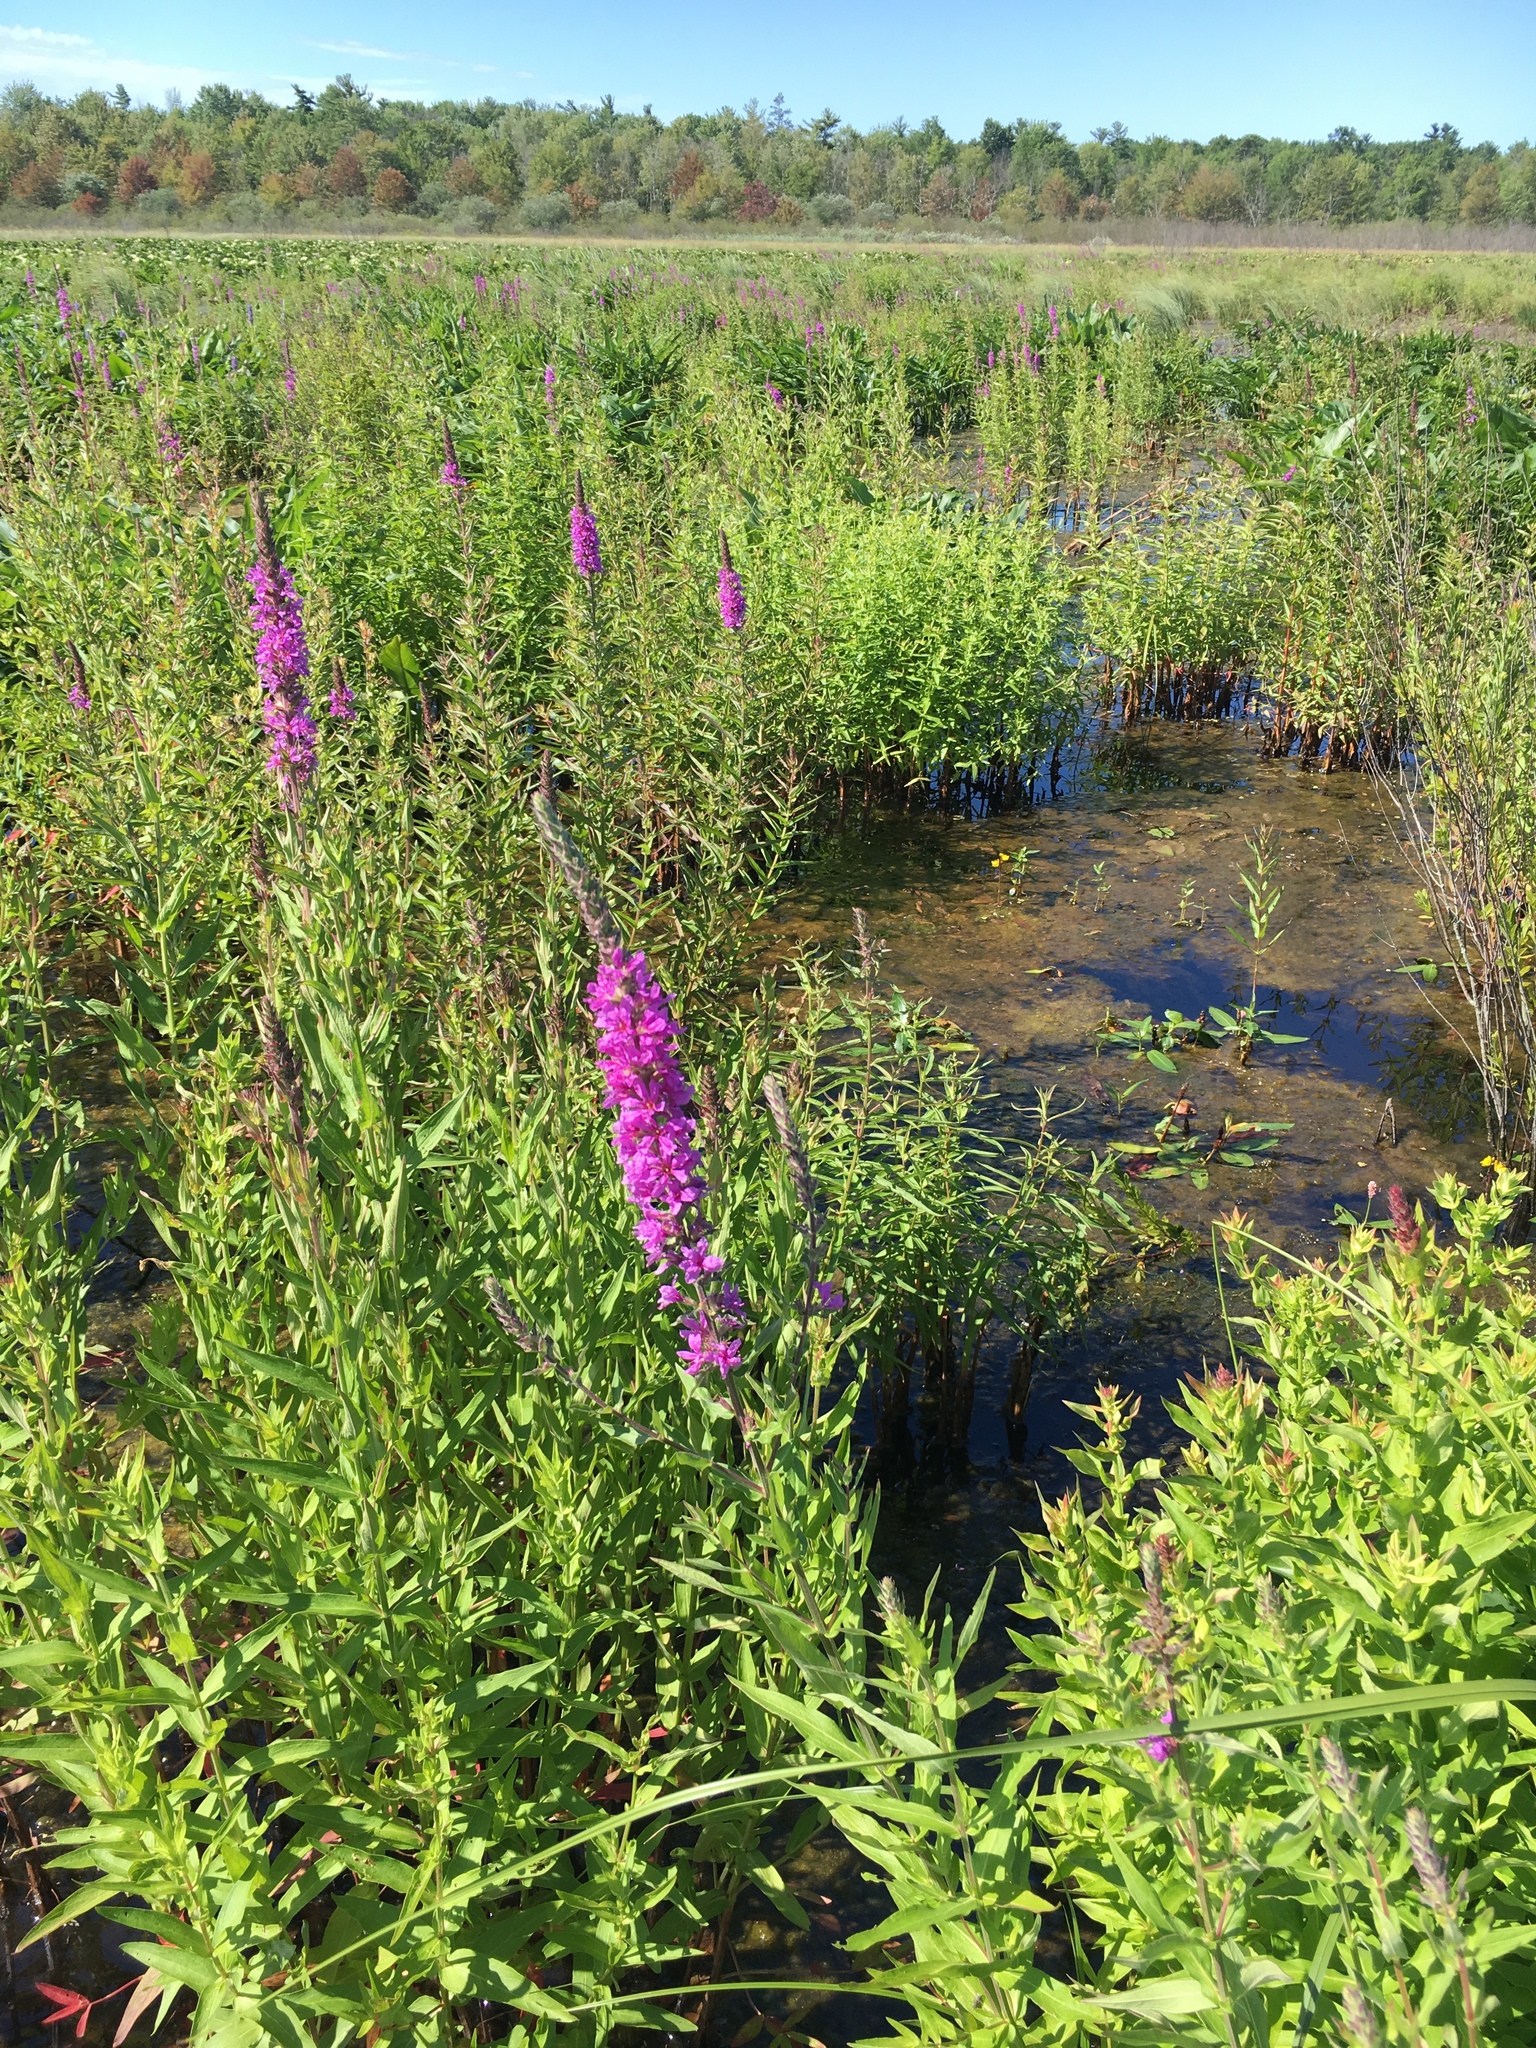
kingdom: Plantae
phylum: Tracheophyta
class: Magnoliopsida
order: Myrtales
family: Lythraceae
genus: Lythrum
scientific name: Lythrum salicaria
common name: Purple loosestrife
